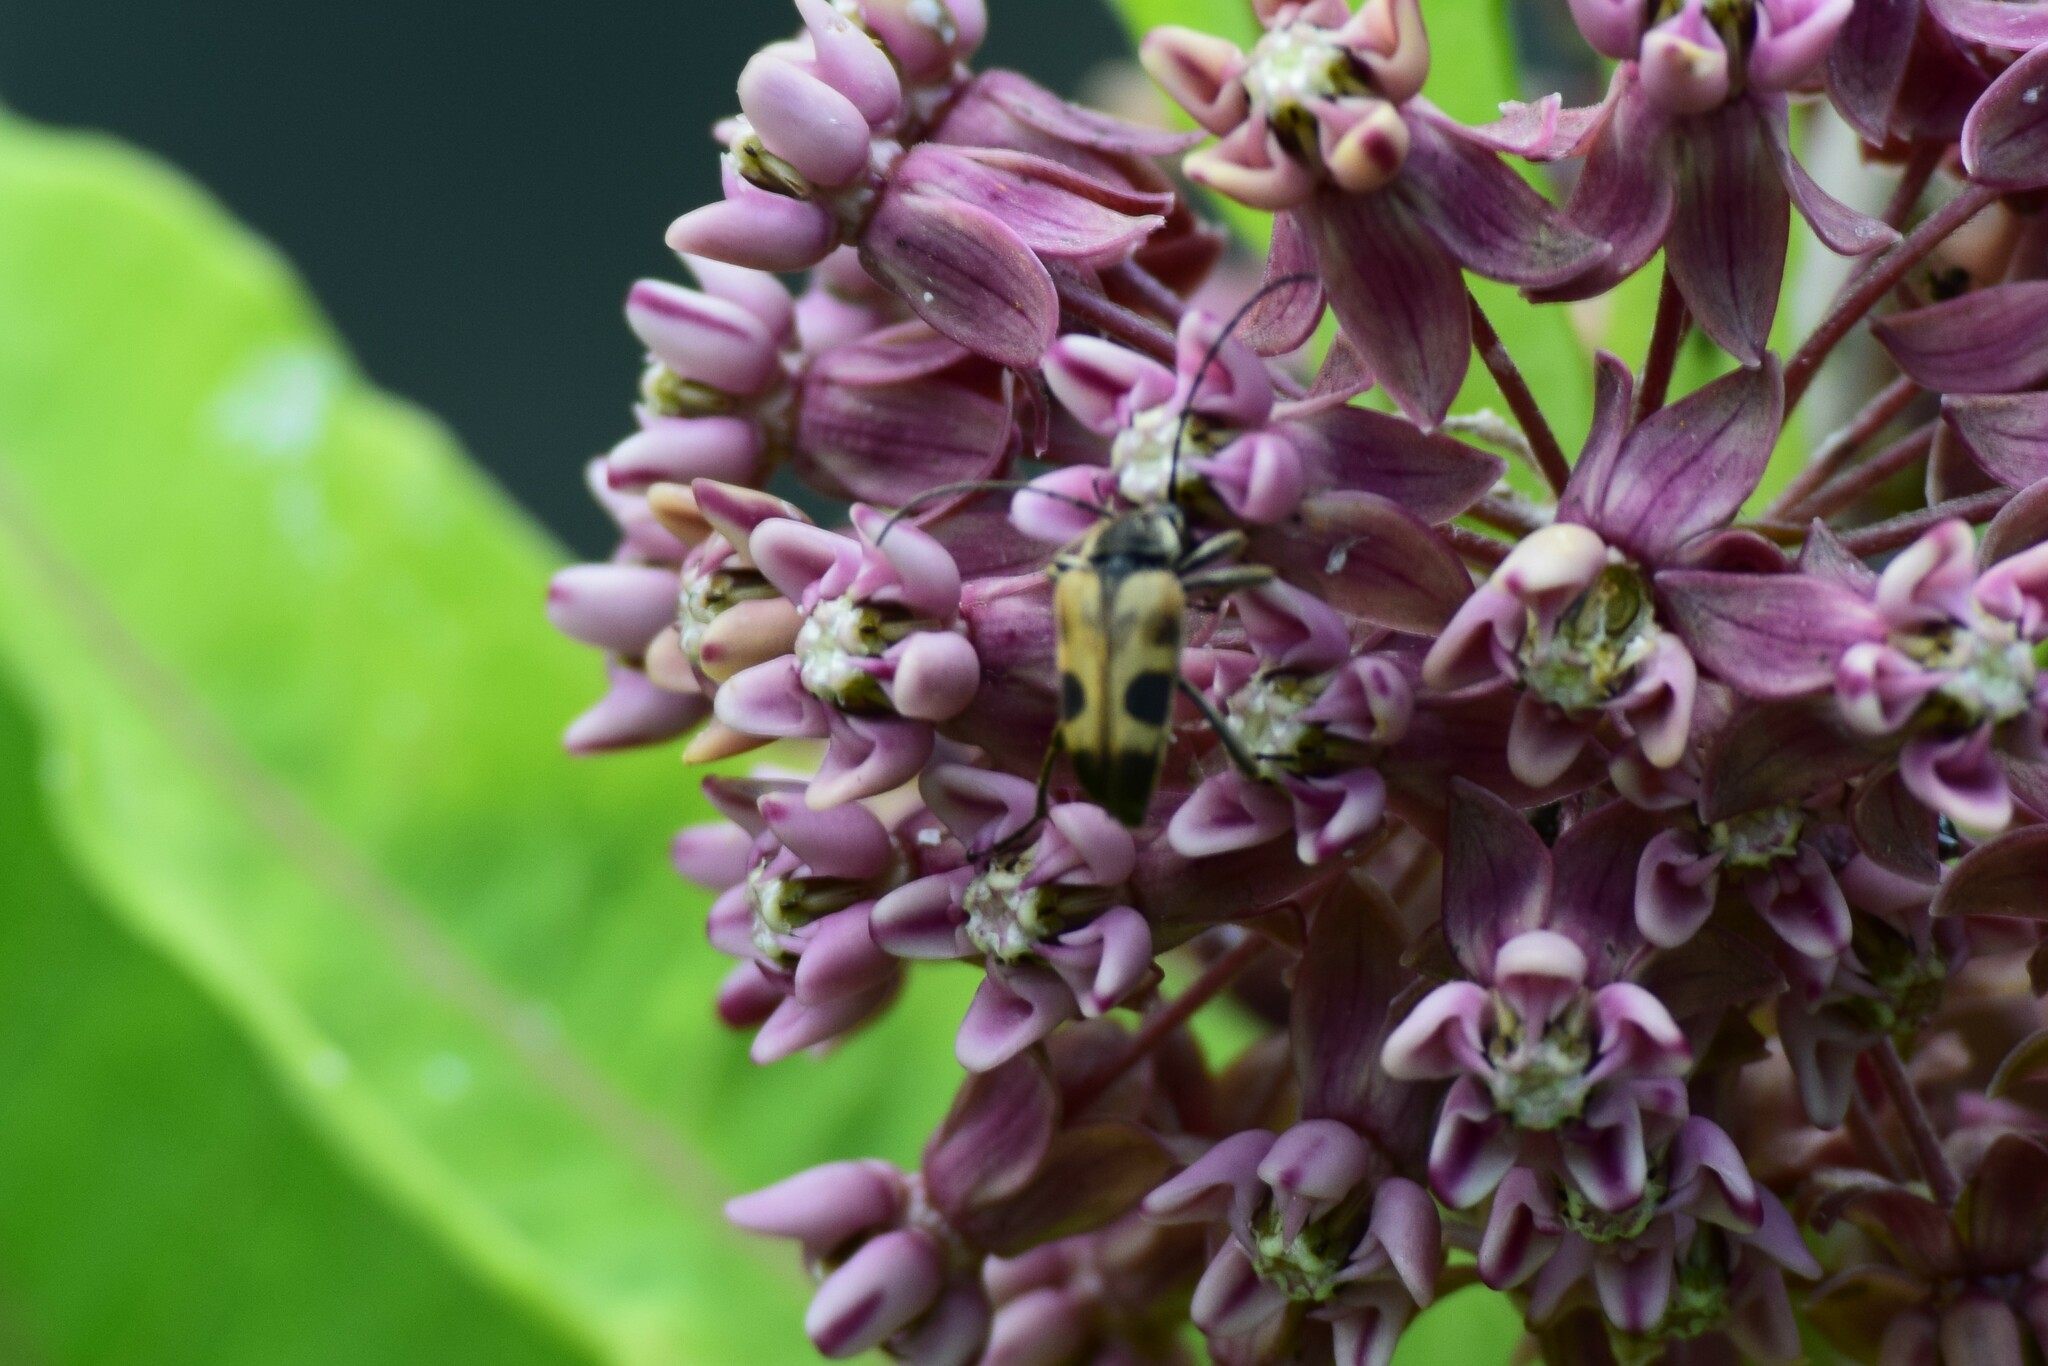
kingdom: Animalia
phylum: Arthropoda
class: Insecta
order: Coleoptera
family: Cerambycidae
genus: Judolia
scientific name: Judolia cordifera
